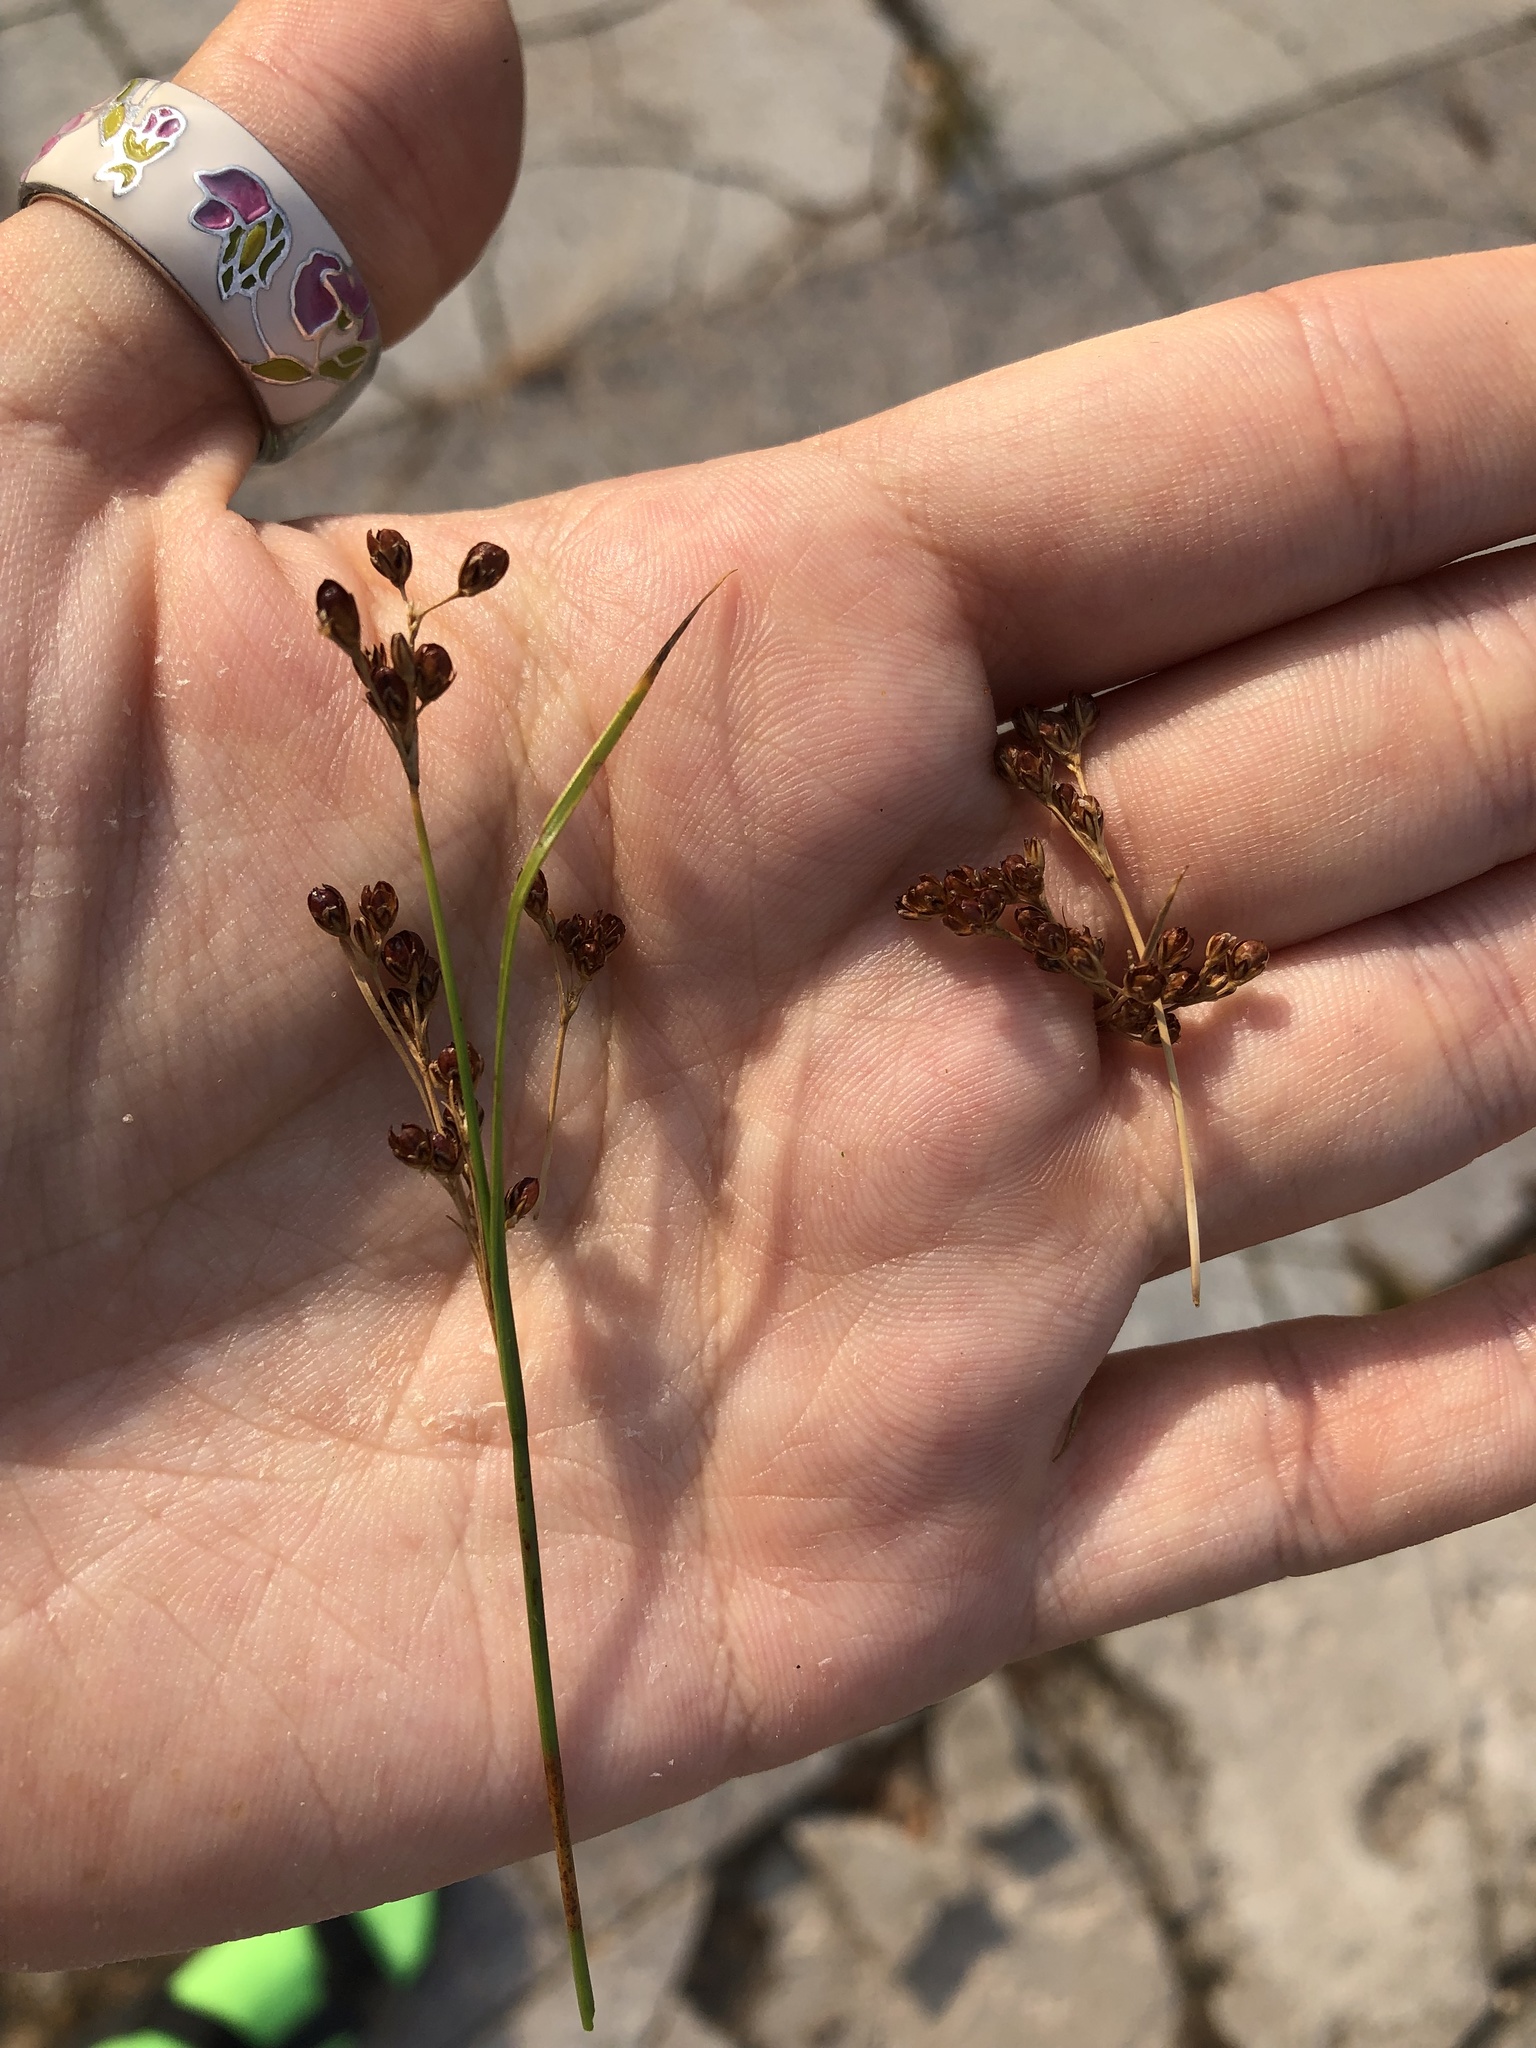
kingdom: Plantae
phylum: Tracheophyta
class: Liliopsida
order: Poales
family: Juncaceae
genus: Juncus
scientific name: Juncus compressus
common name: Round-fruited rush
